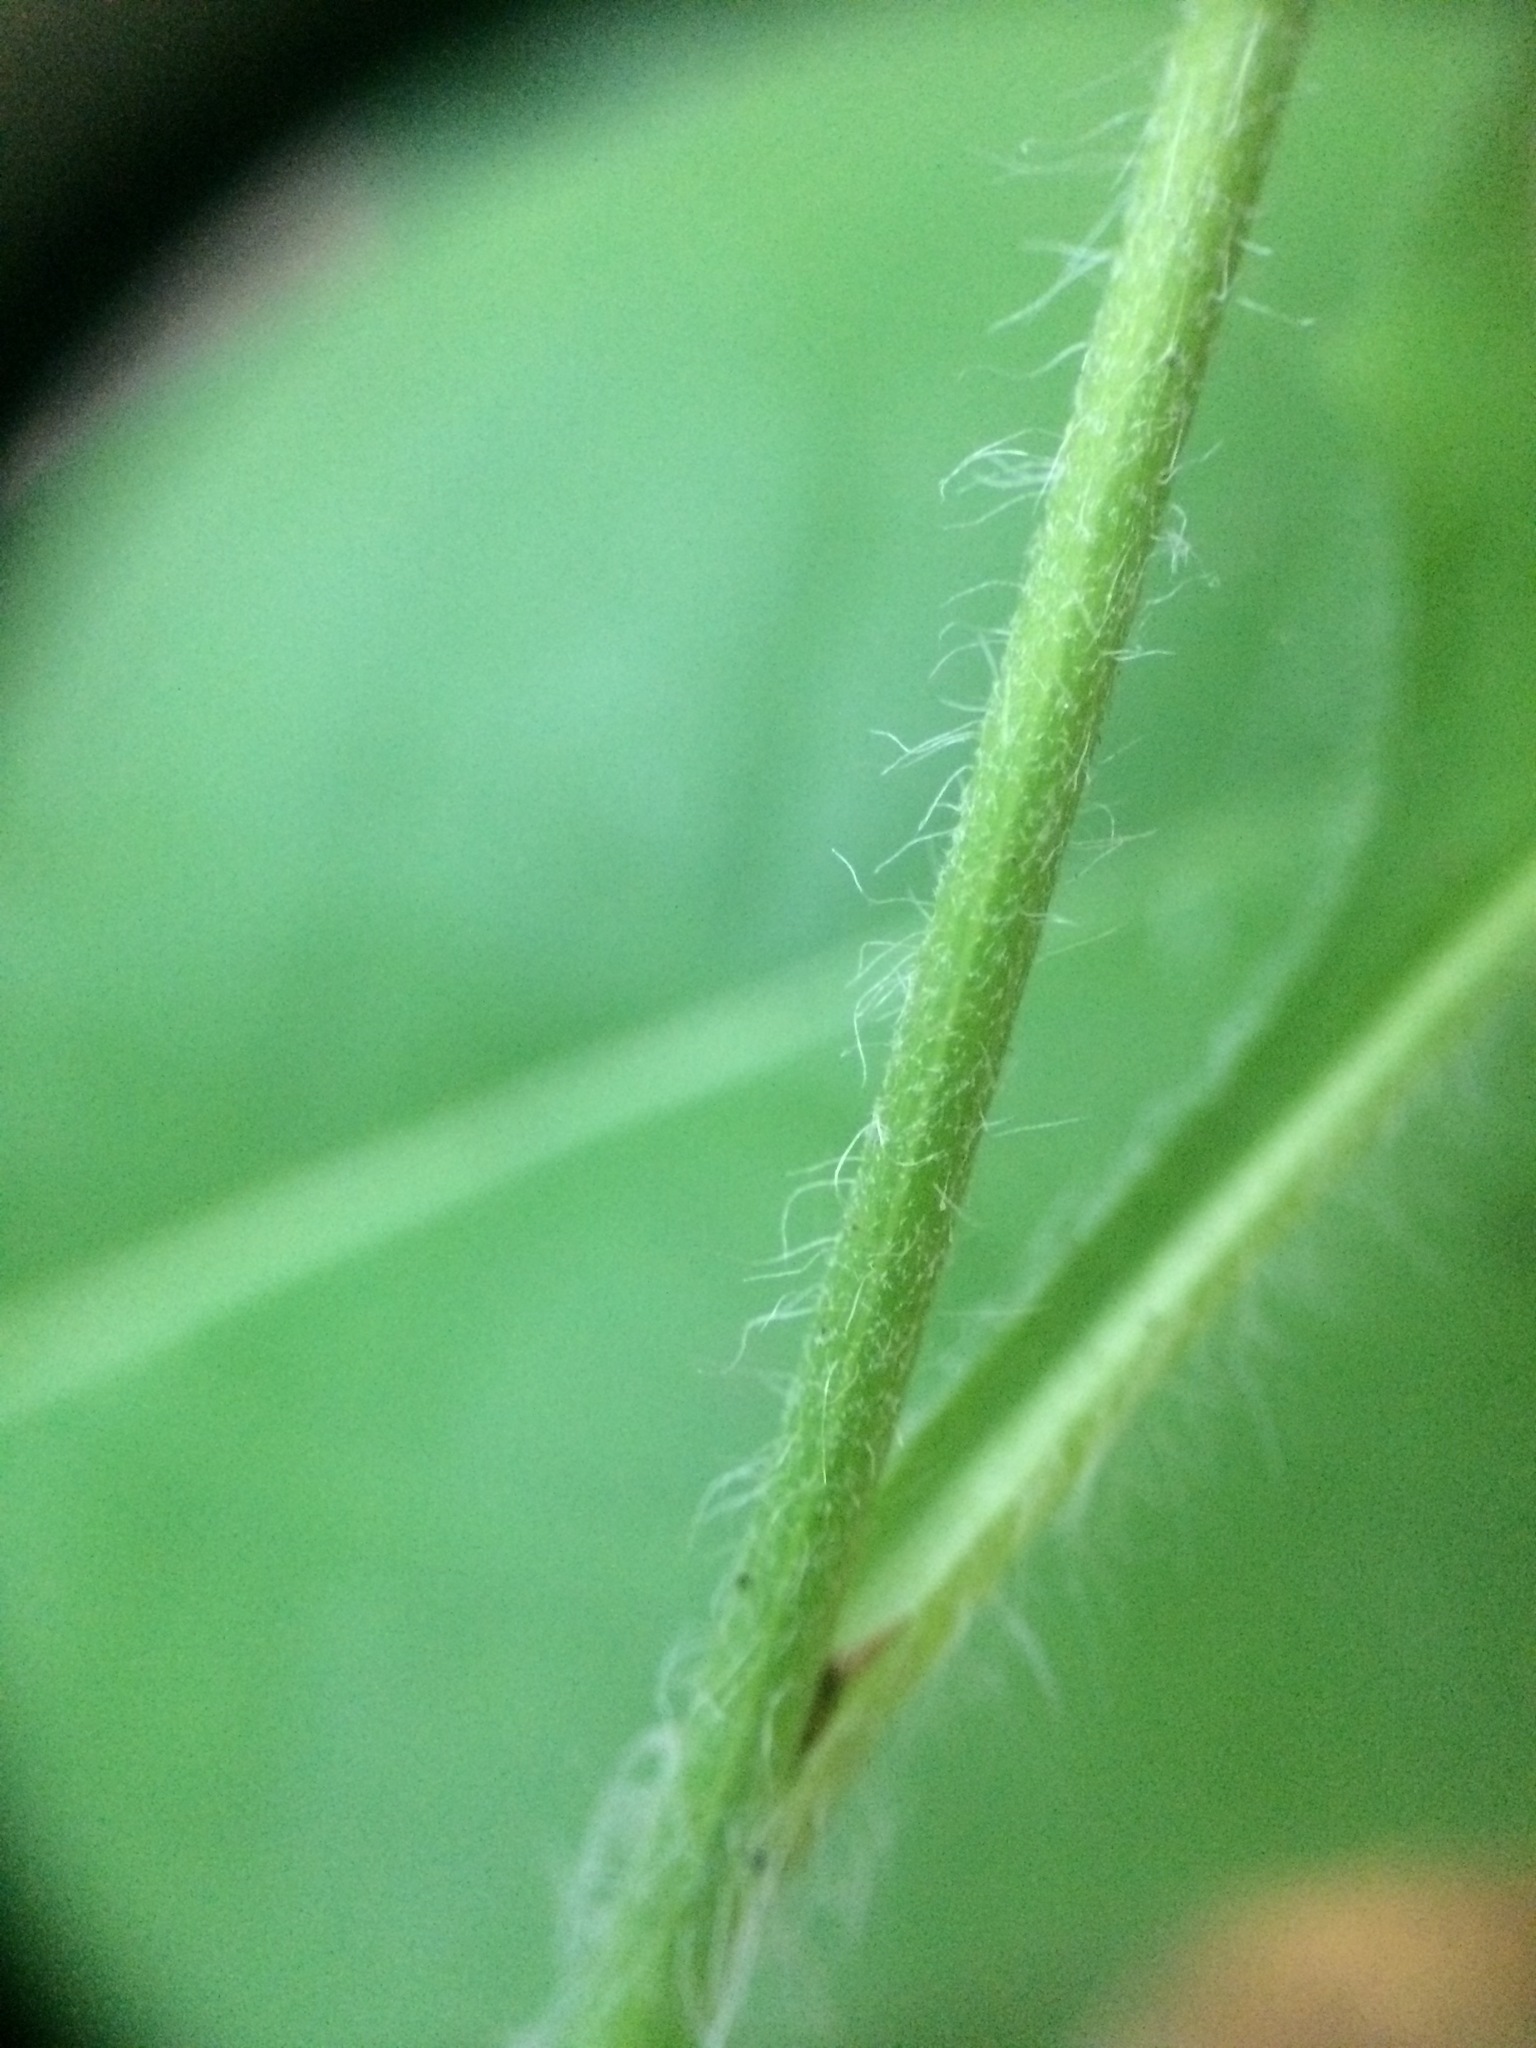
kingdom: Plantae
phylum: Tracheophyta
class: Magnoliopsida
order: Asterales
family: Asteraceae
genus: Hieracium
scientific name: Hieracium lachenalii
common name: Common hawkweed
